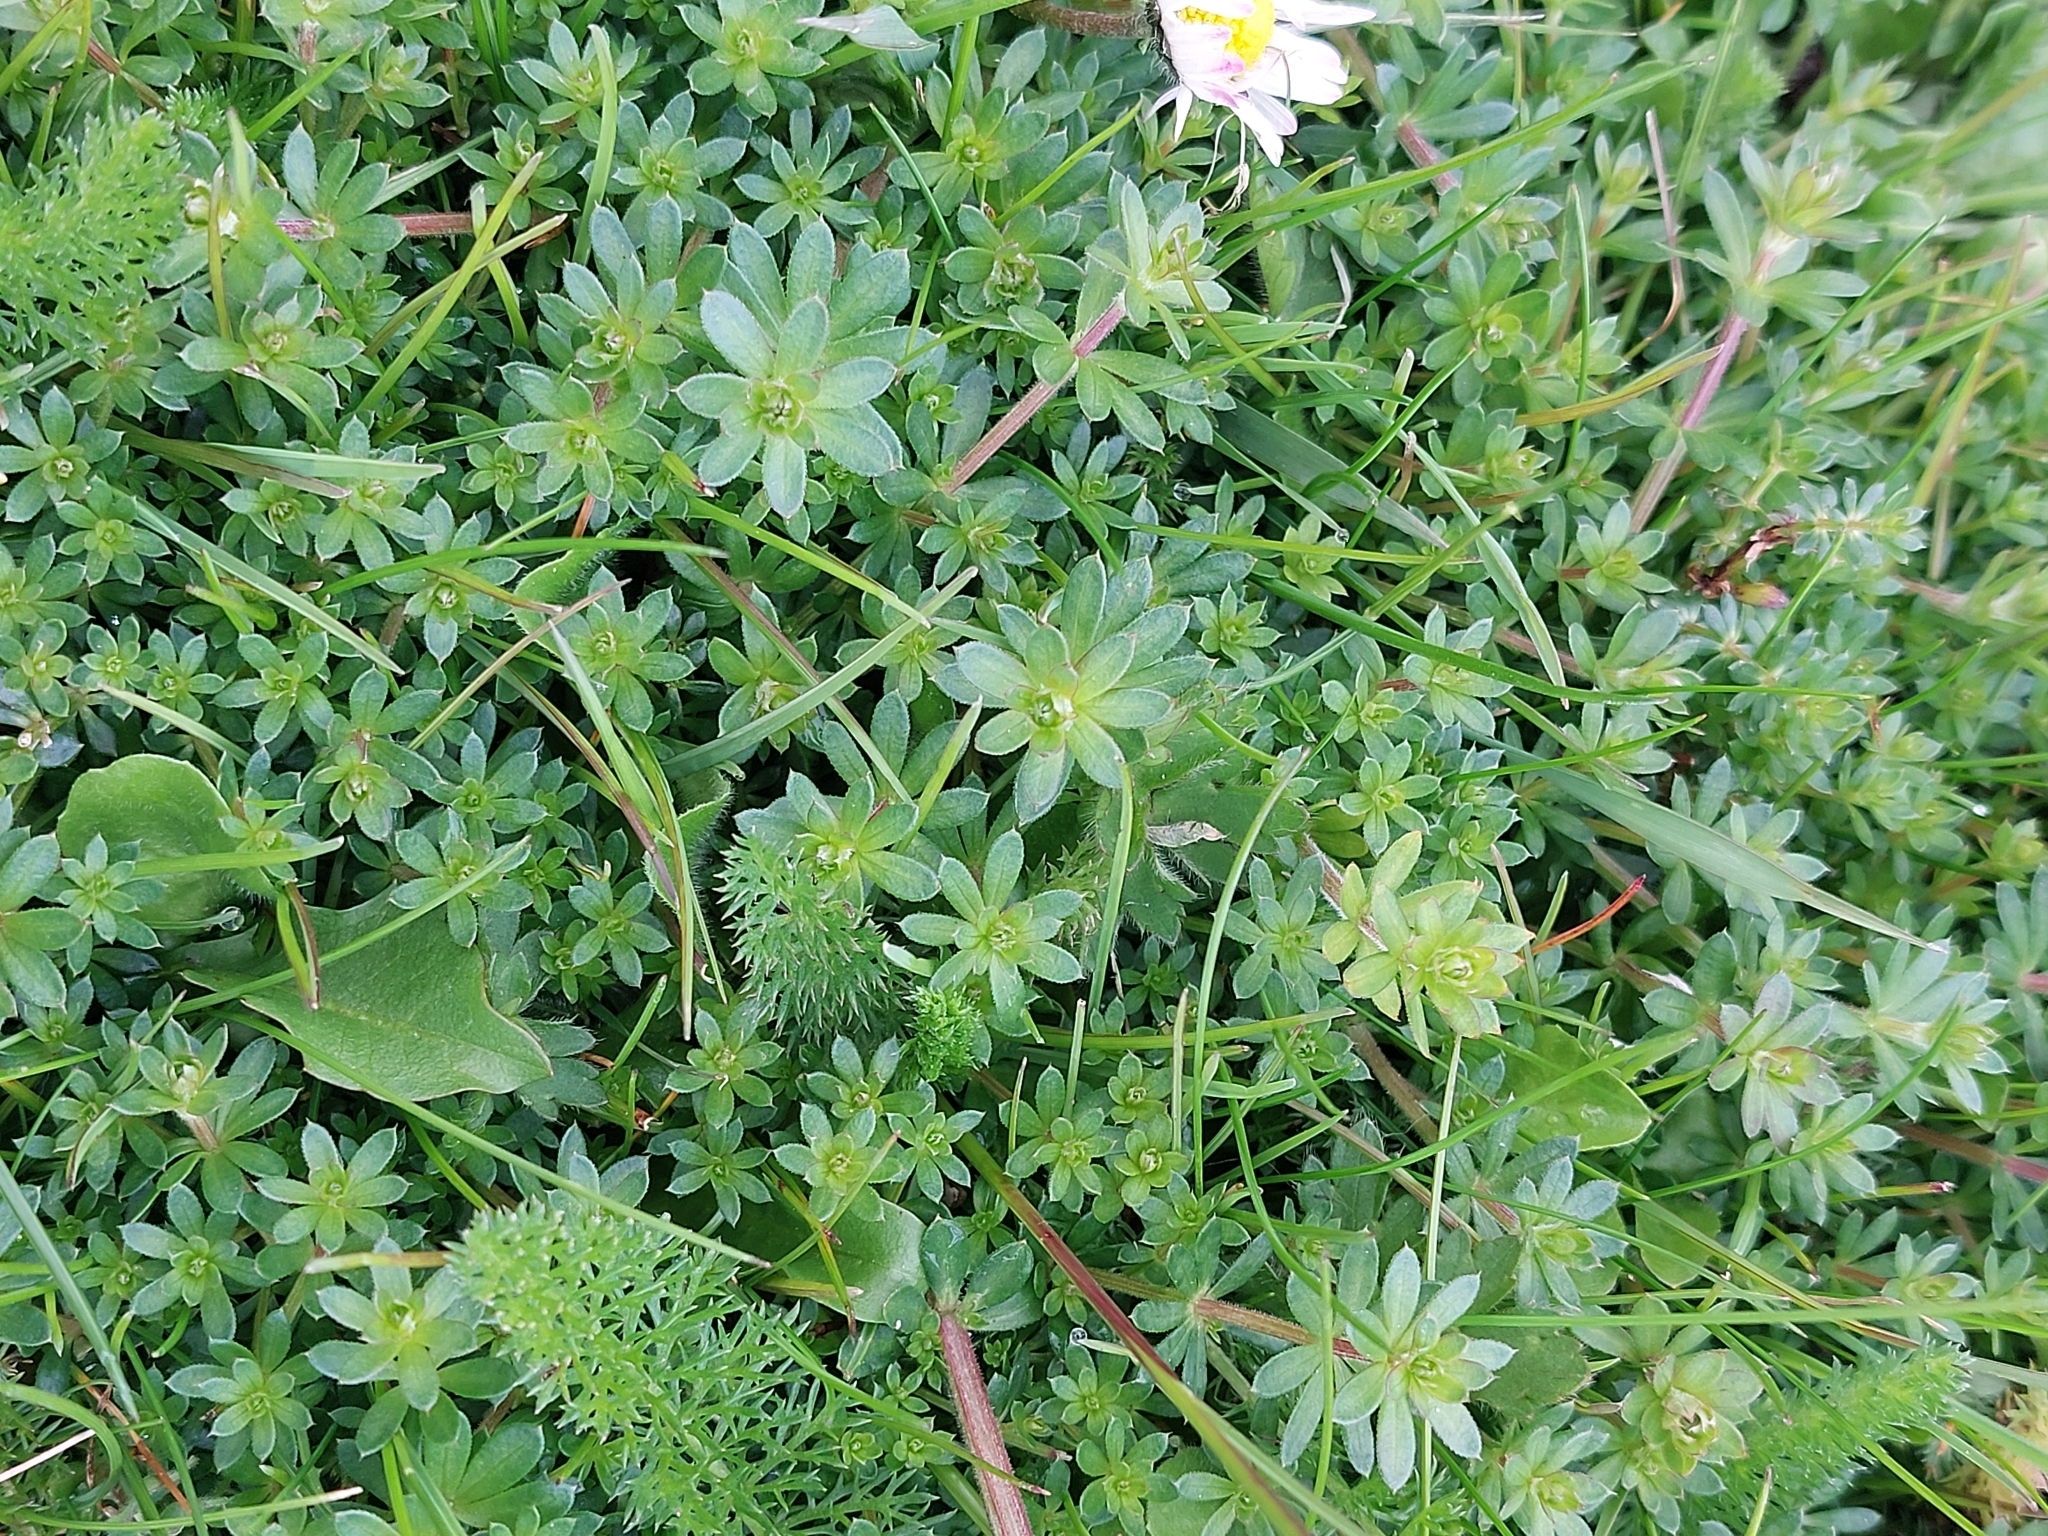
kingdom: Plantae
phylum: Tracheophyta
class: Magnoliopsida
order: Gentianales
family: Rubiaceae
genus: Galium
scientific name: Galium album
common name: White bedstraw
